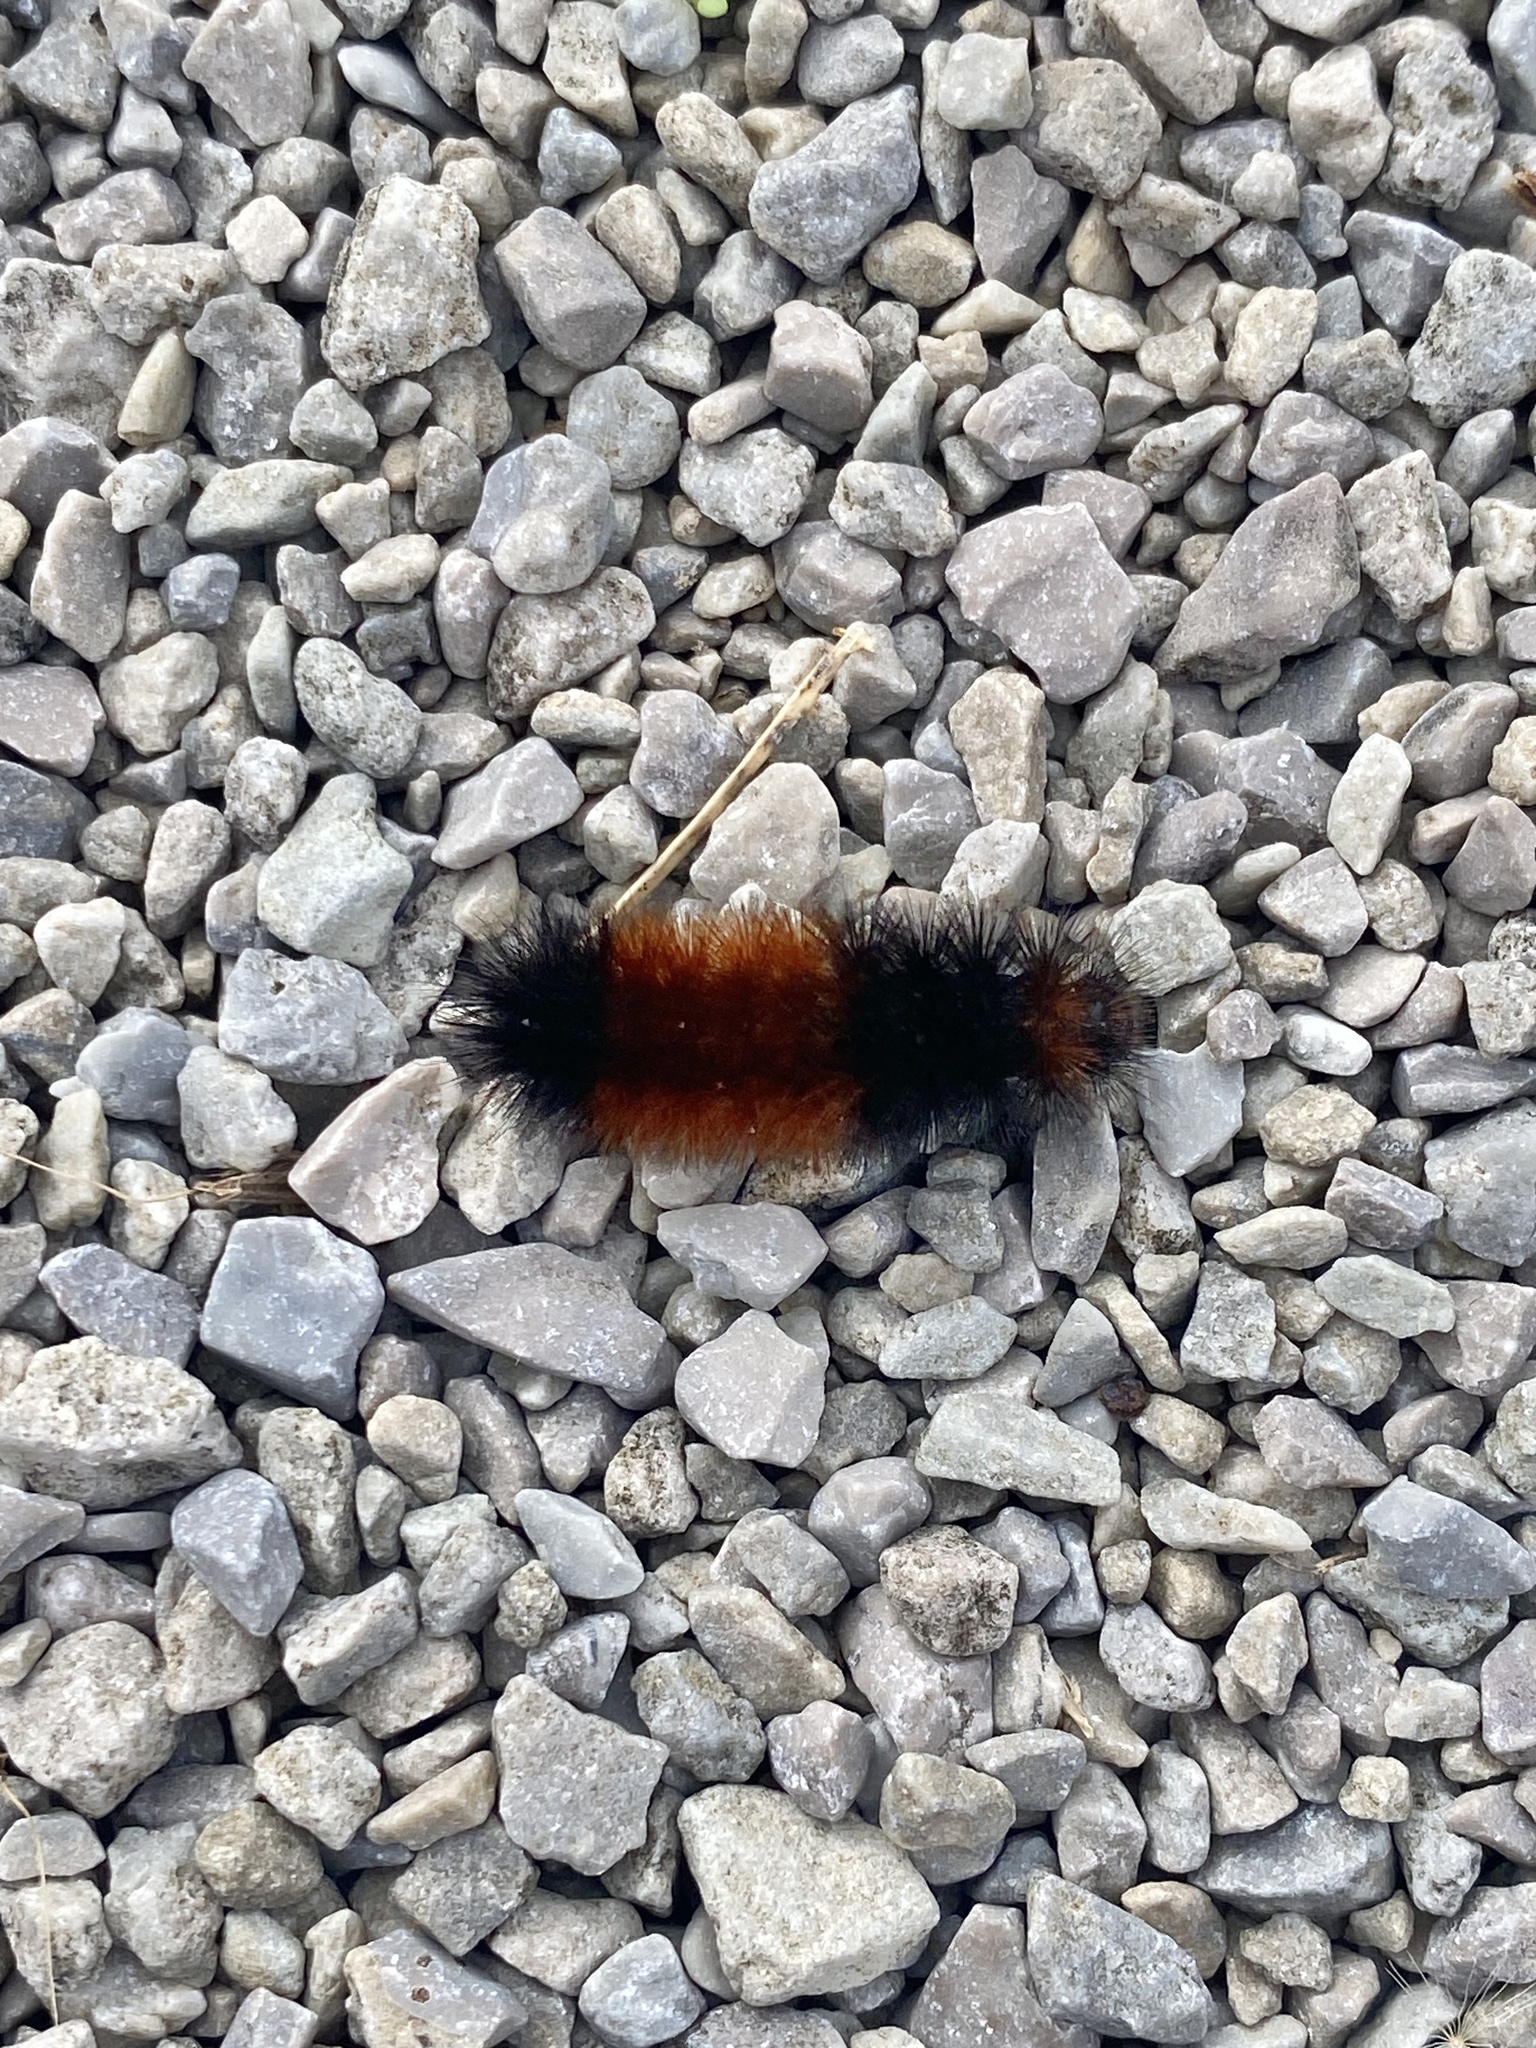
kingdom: Animalia
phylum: Arthropoda
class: Insecta
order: Lepidoptera
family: Erebidae
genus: Pyrrharctia
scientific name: Pyrrharctia isabella
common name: Isabella tiger moth
